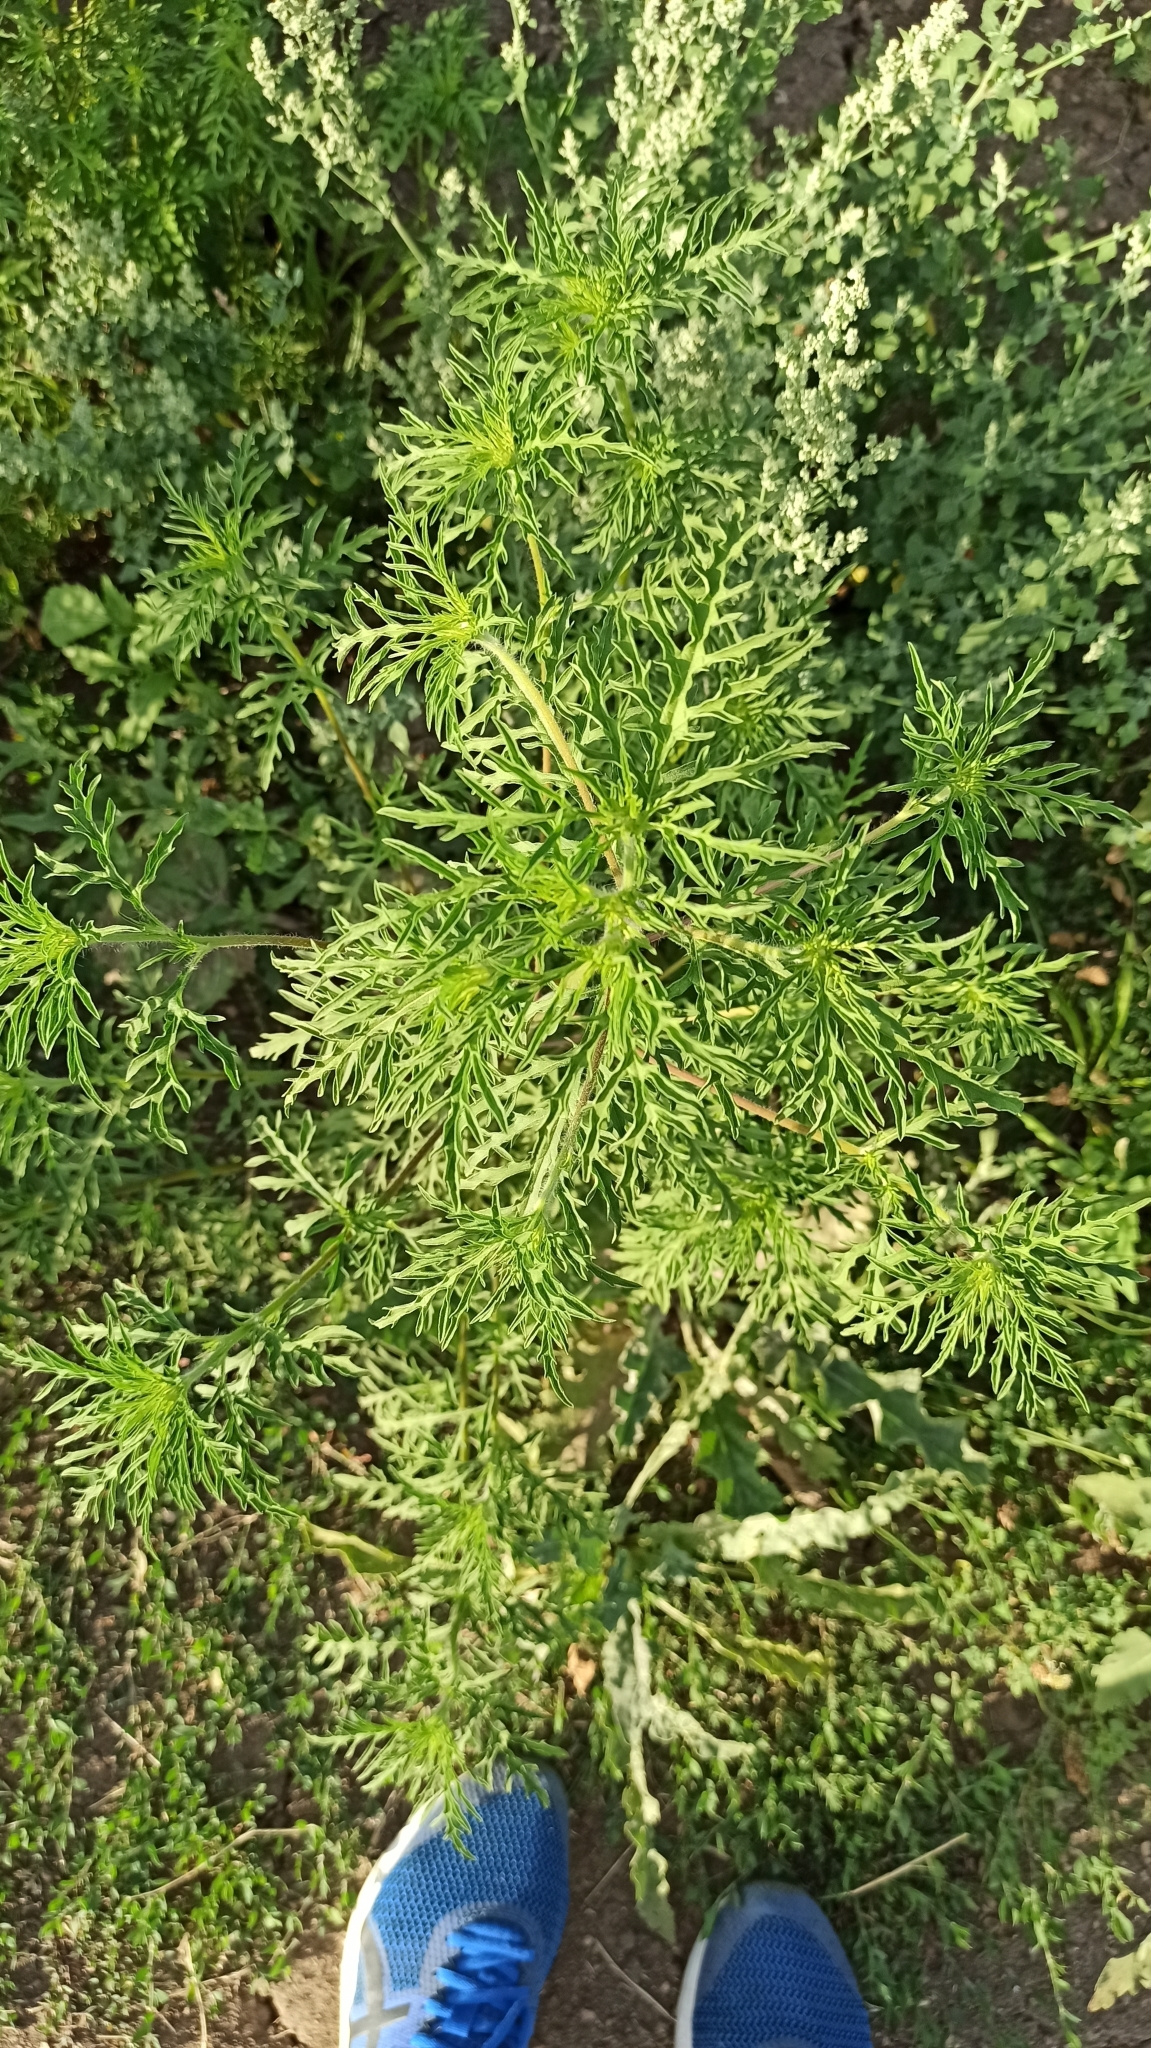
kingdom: Plantae
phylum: Tracheophyta
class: Magnoliopsida
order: Asterales
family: Asteraceae
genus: Ambrosia
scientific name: Ambrosia artemisiifolia
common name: Annual ragweed
